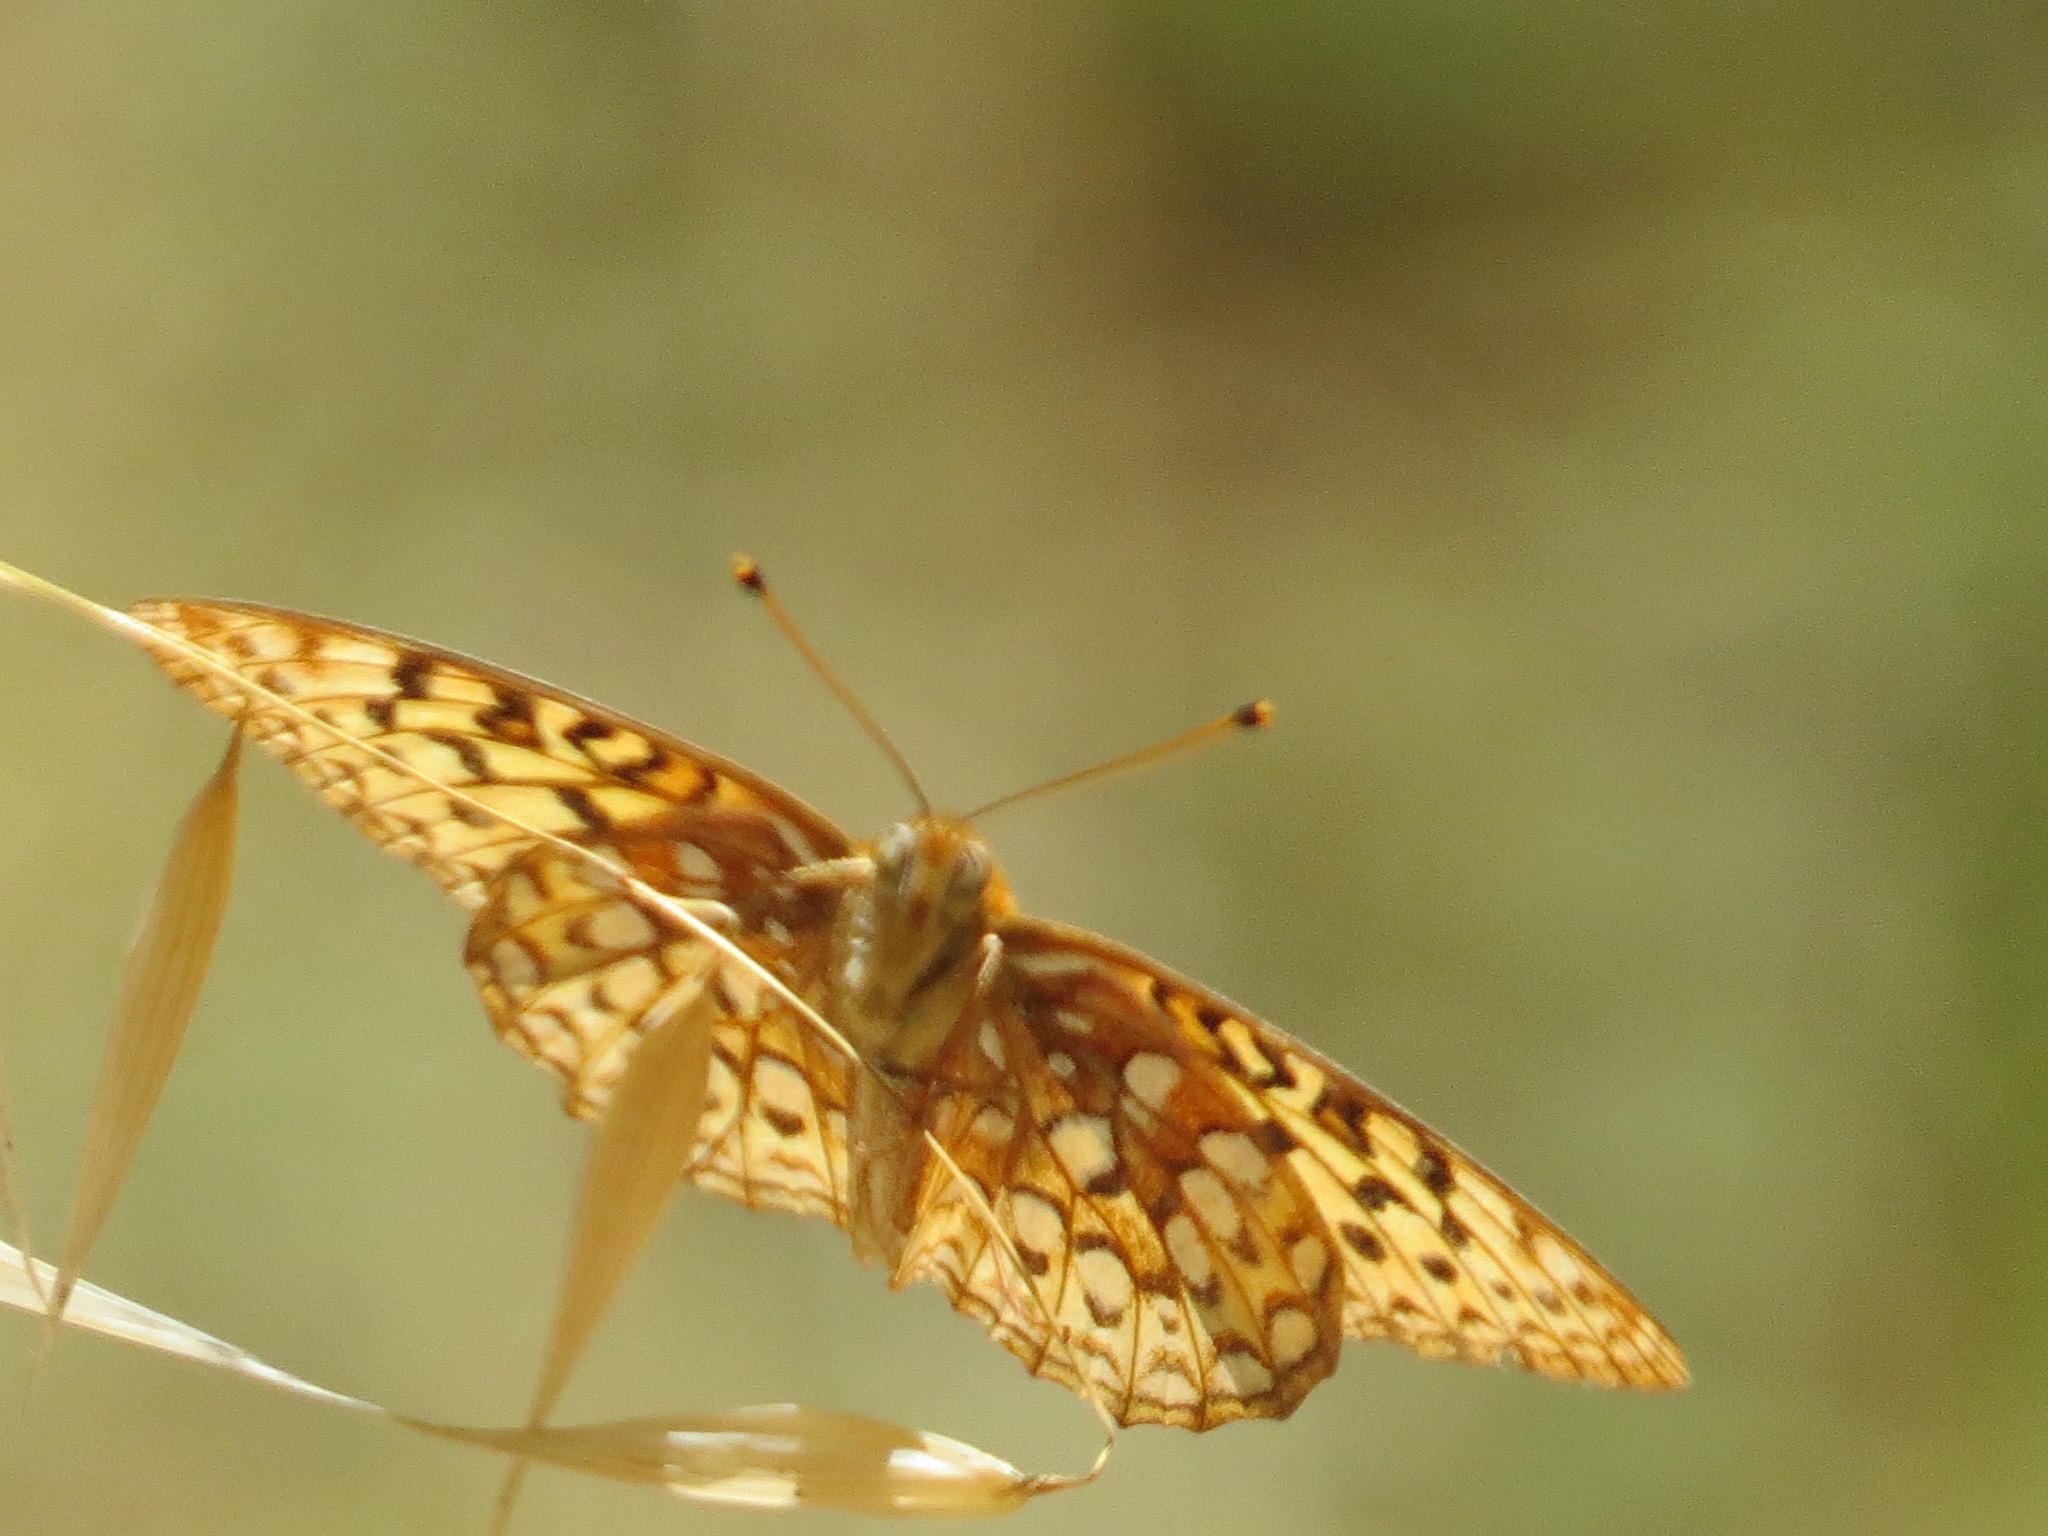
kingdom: Animalia
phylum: Arthropoda
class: Insecta
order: Lepidoptera
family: Nymphalidae
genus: Argynnis
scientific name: Argynnis coronis
